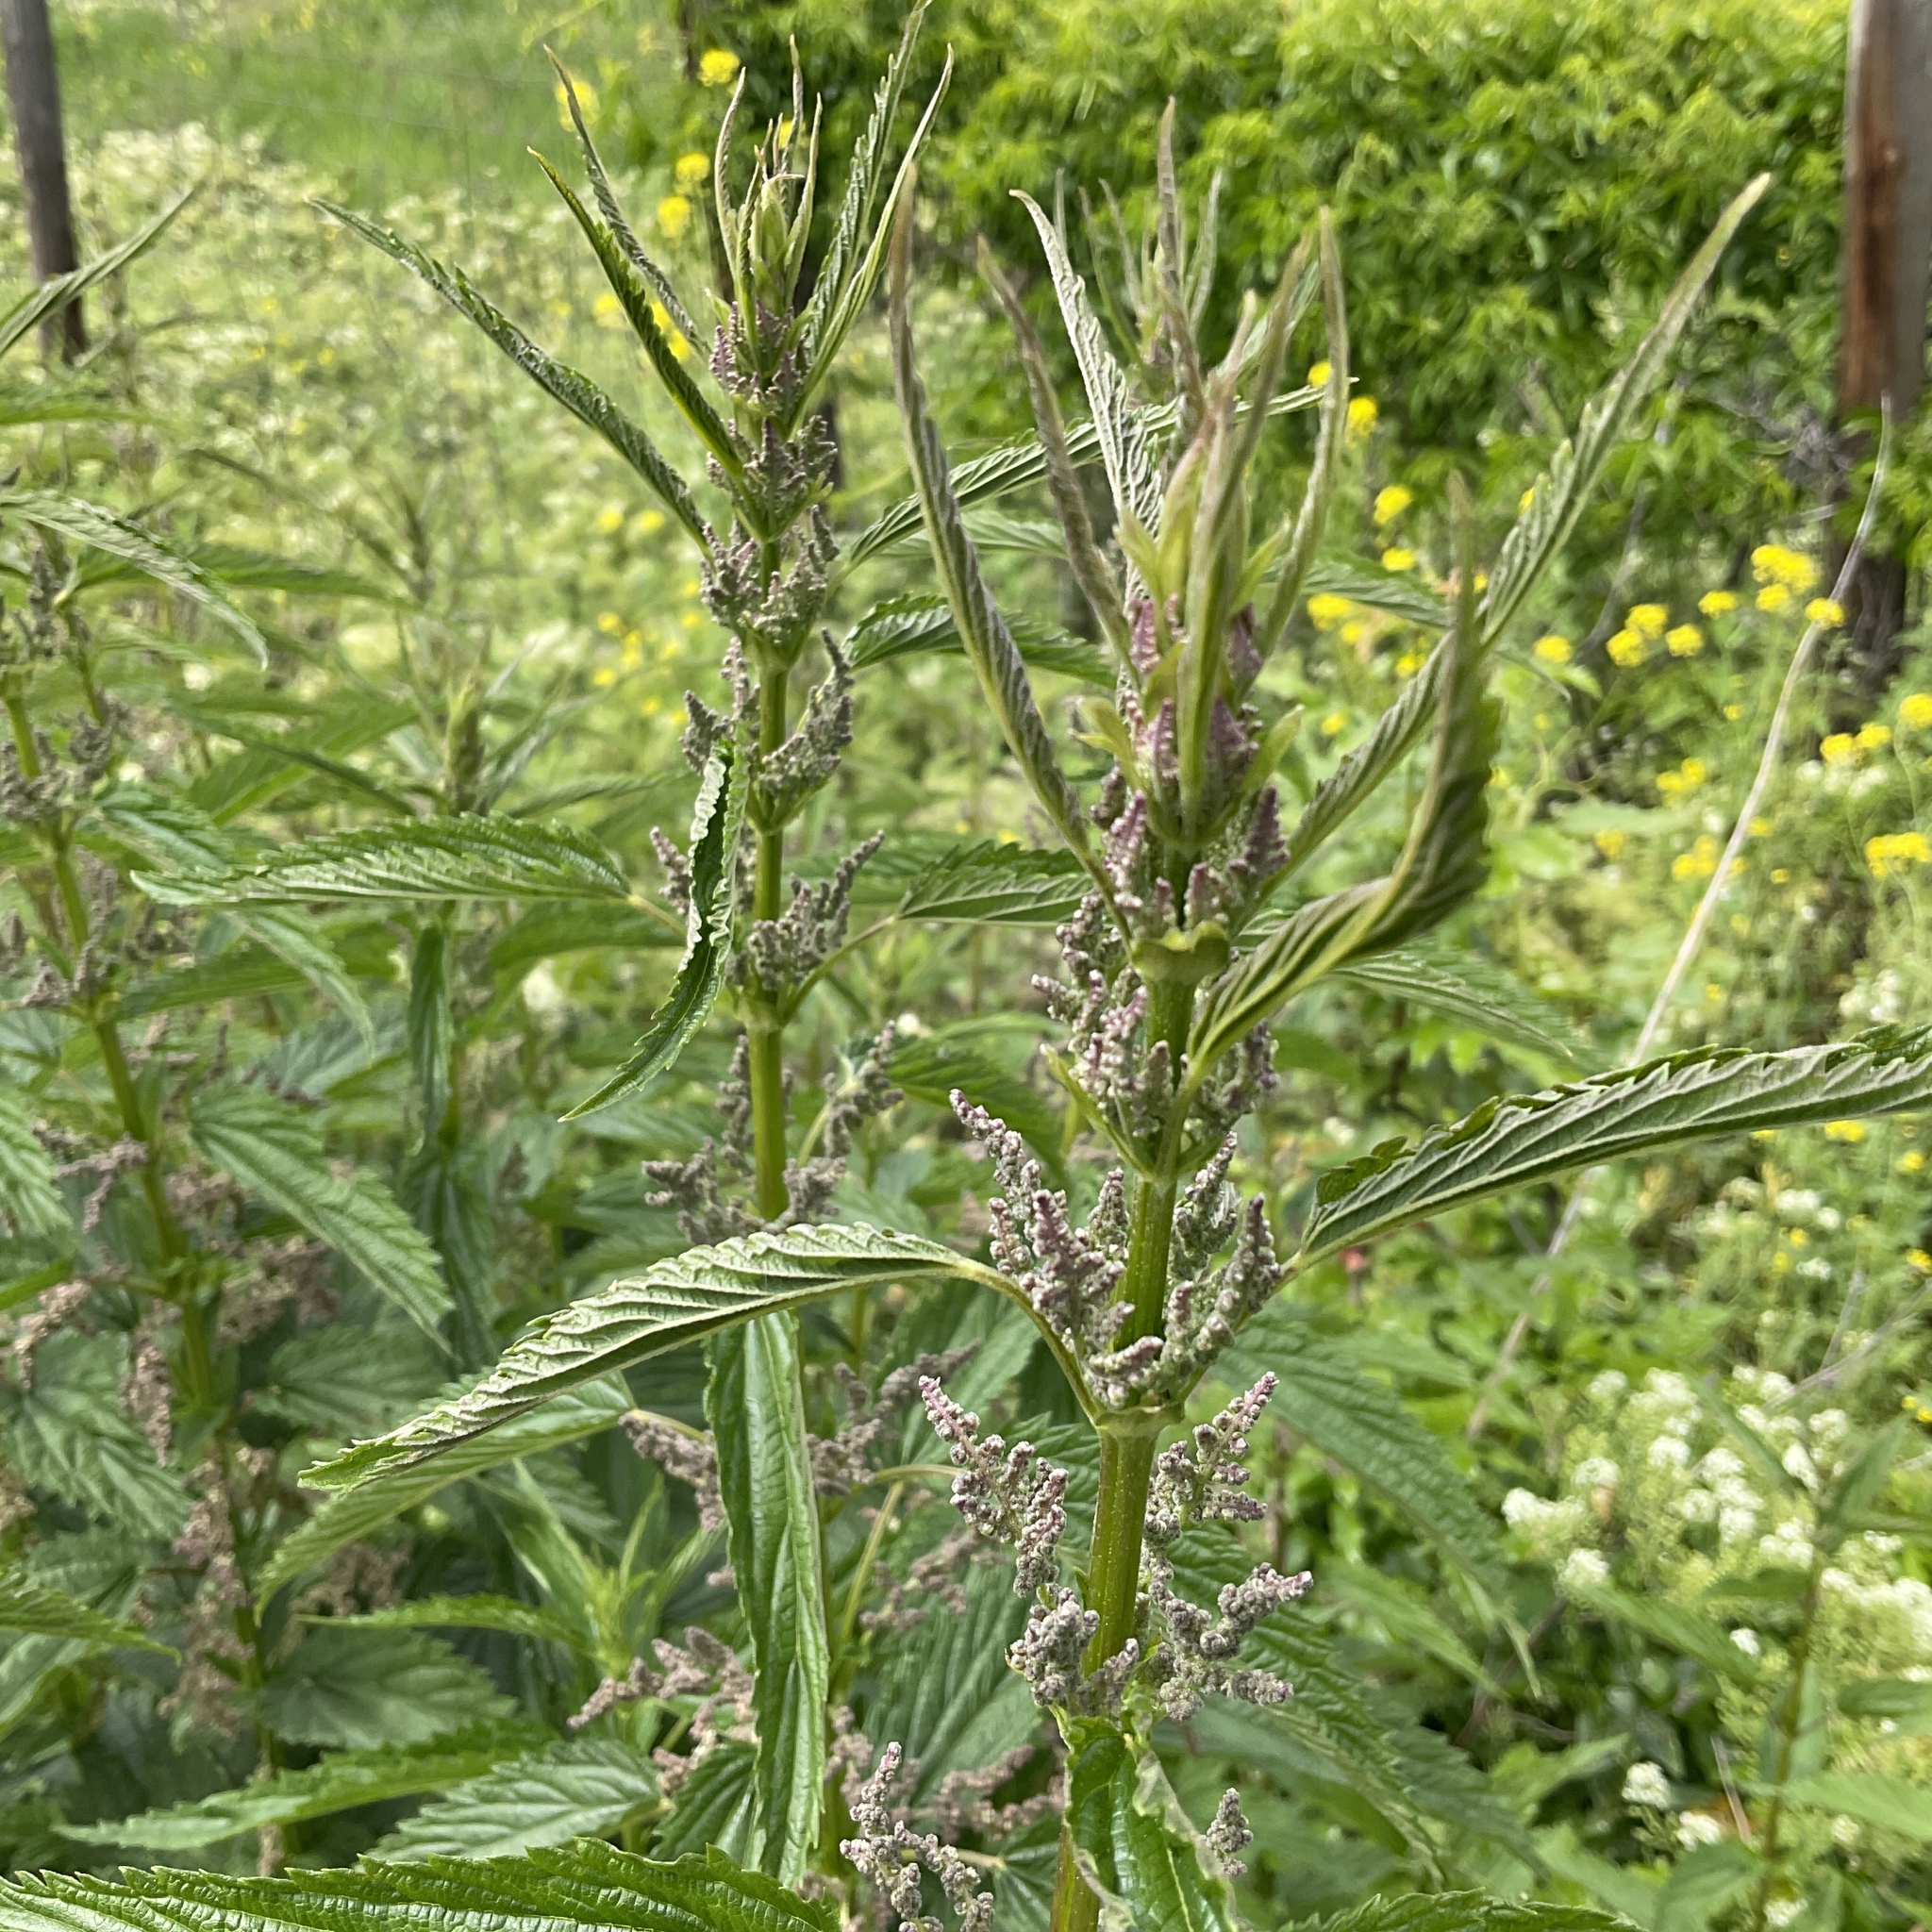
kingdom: Plantae
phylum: Tracheophyta
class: Magnoliopsida
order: Rosales
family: Urticaceae
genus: Urtica
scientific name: Urtica dioica
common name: Common nettle
